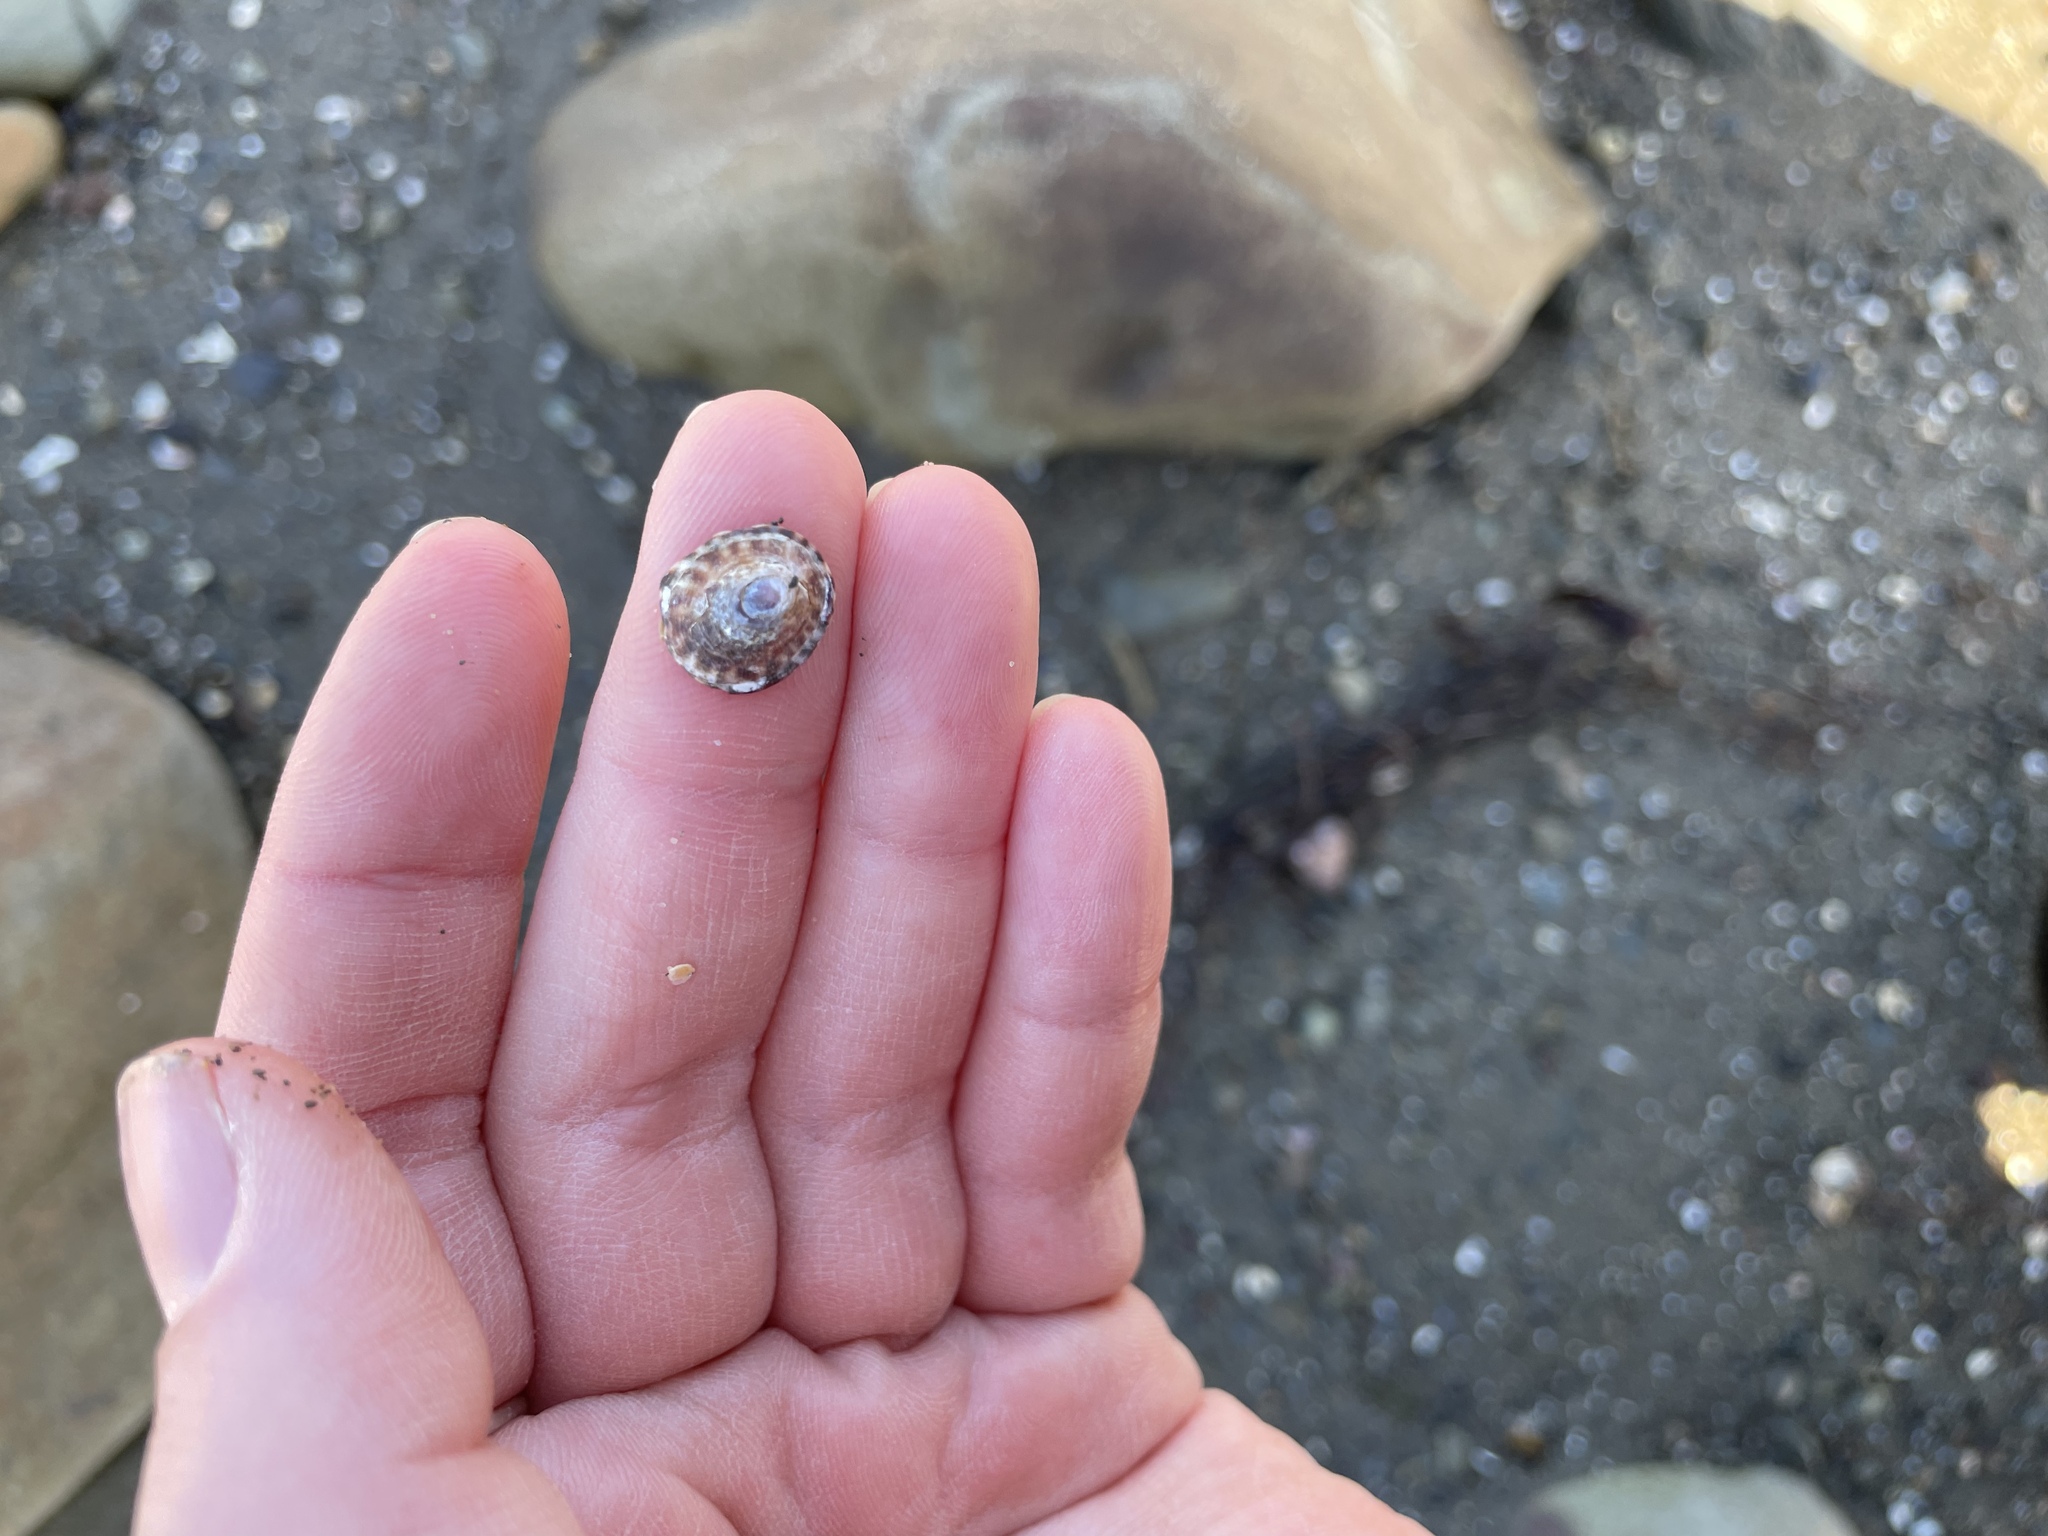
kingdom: Animalia
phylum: Mollusca
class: Gastropoda
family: Lottiidae
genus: Testudinalia
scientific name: Testudinalia testudinalis
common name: Common tortoiseshell limpet
